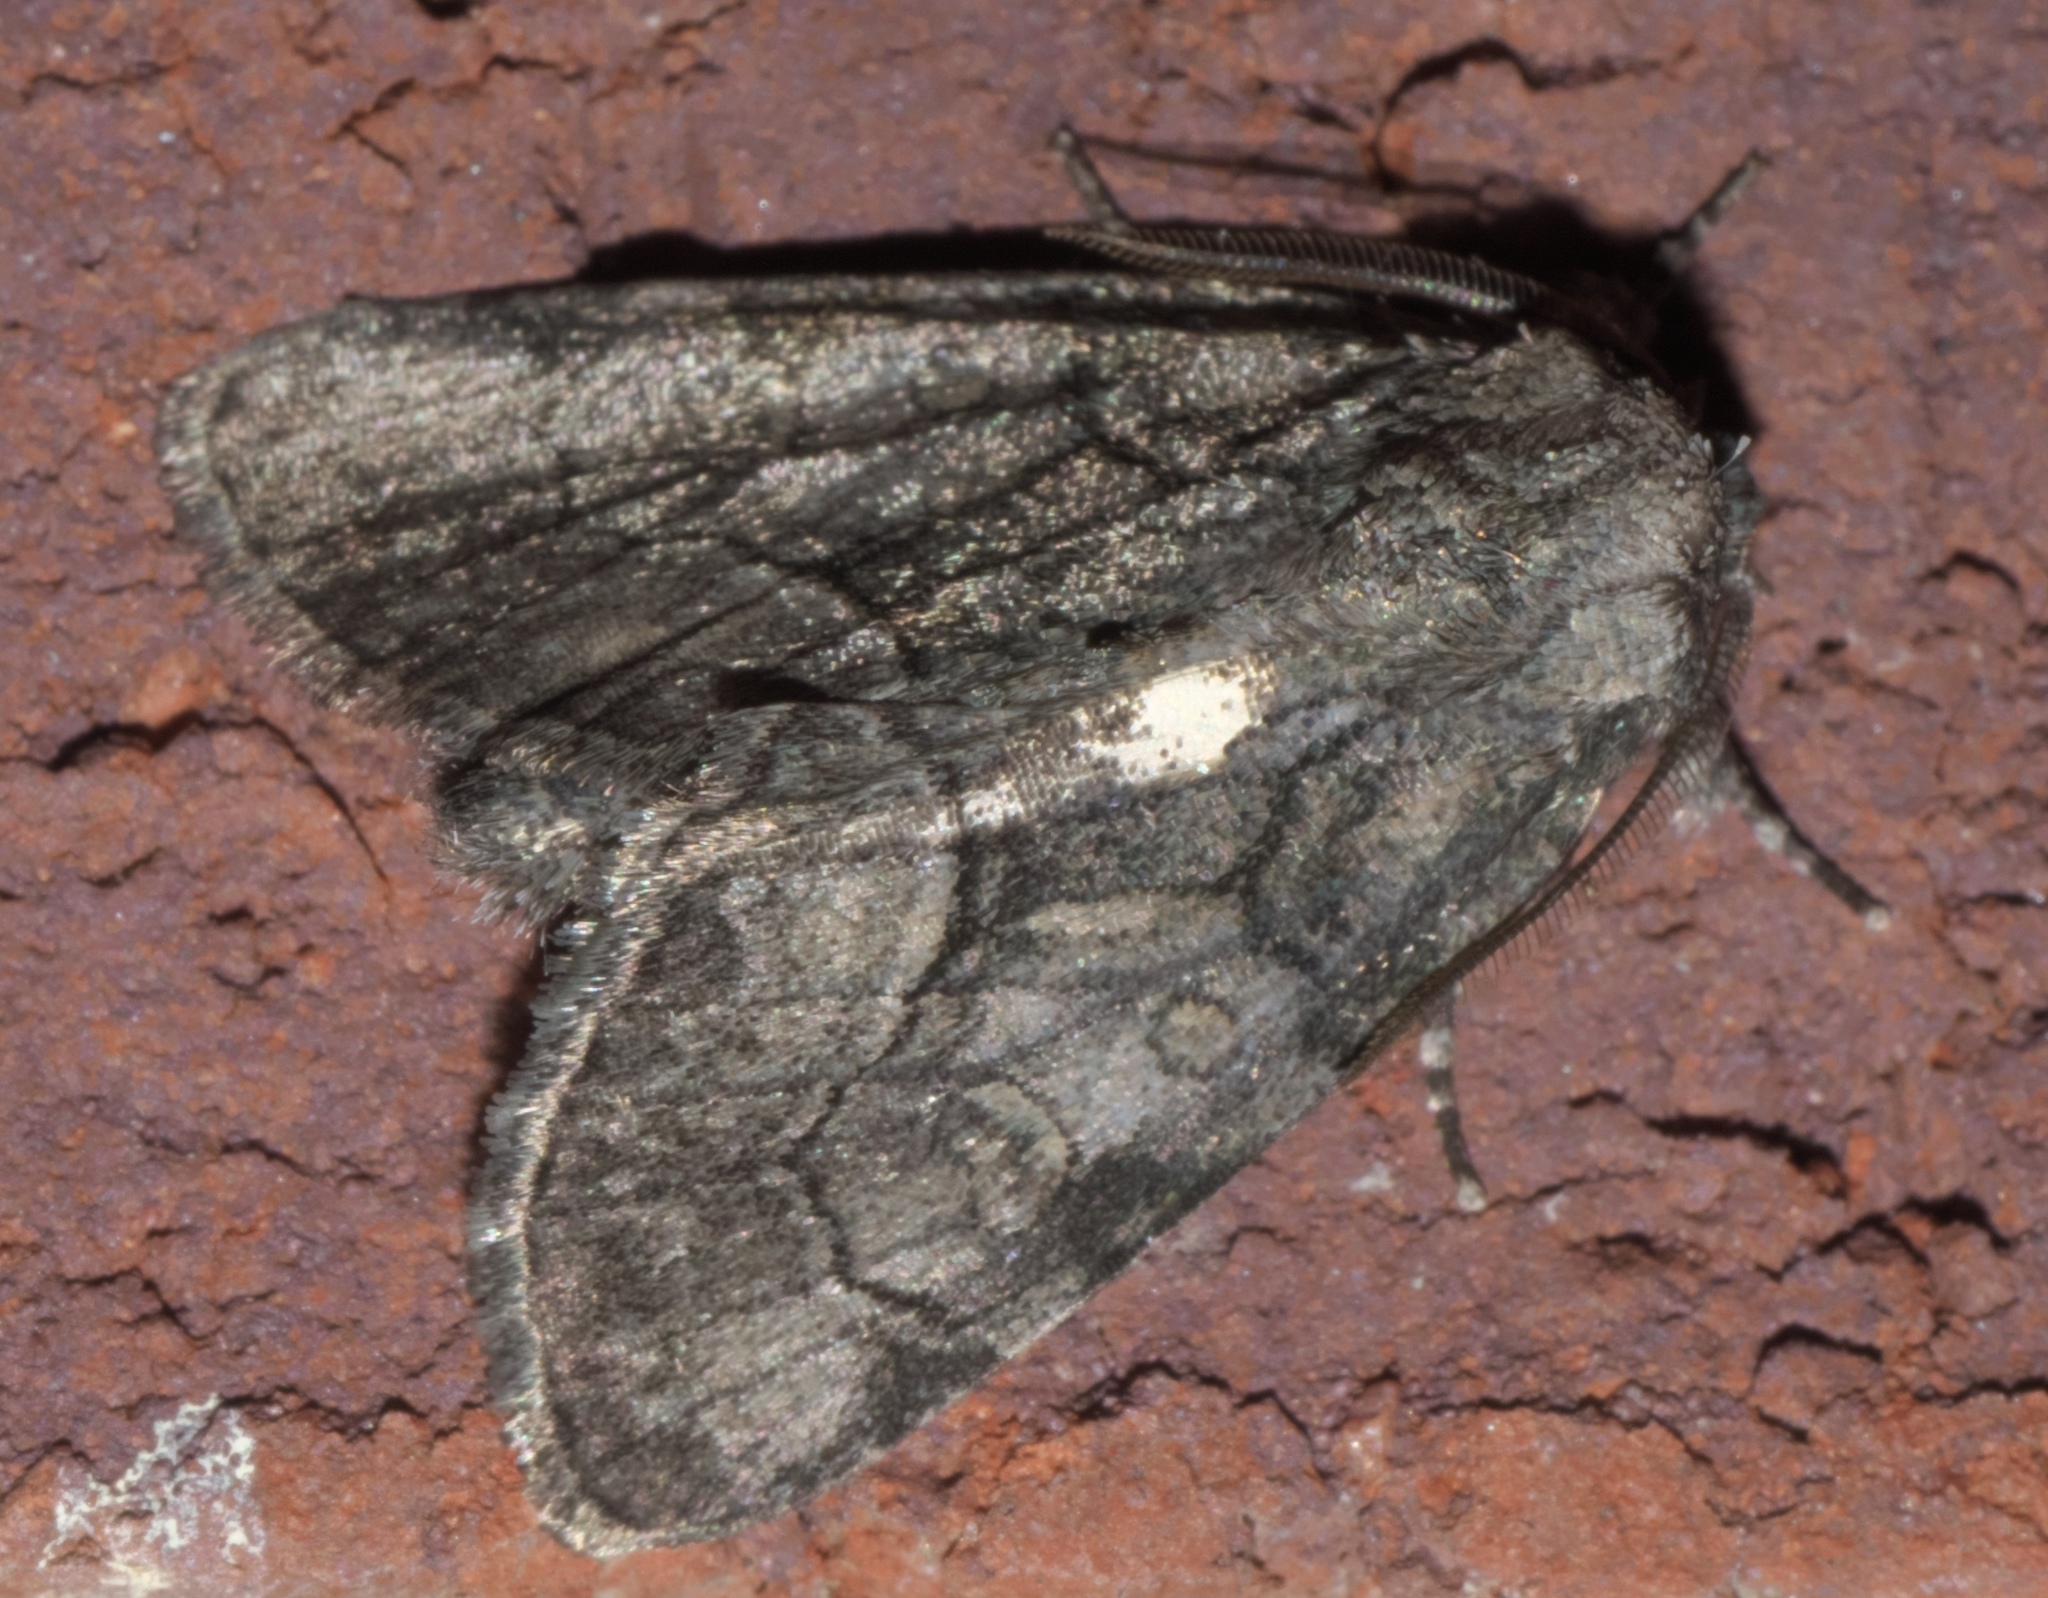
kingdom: Animalia
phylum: Arthropoda
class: Insecta
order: Lepidoptera
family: Noctuidae
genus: Raphia
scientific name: Raphia frater
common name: Brother
